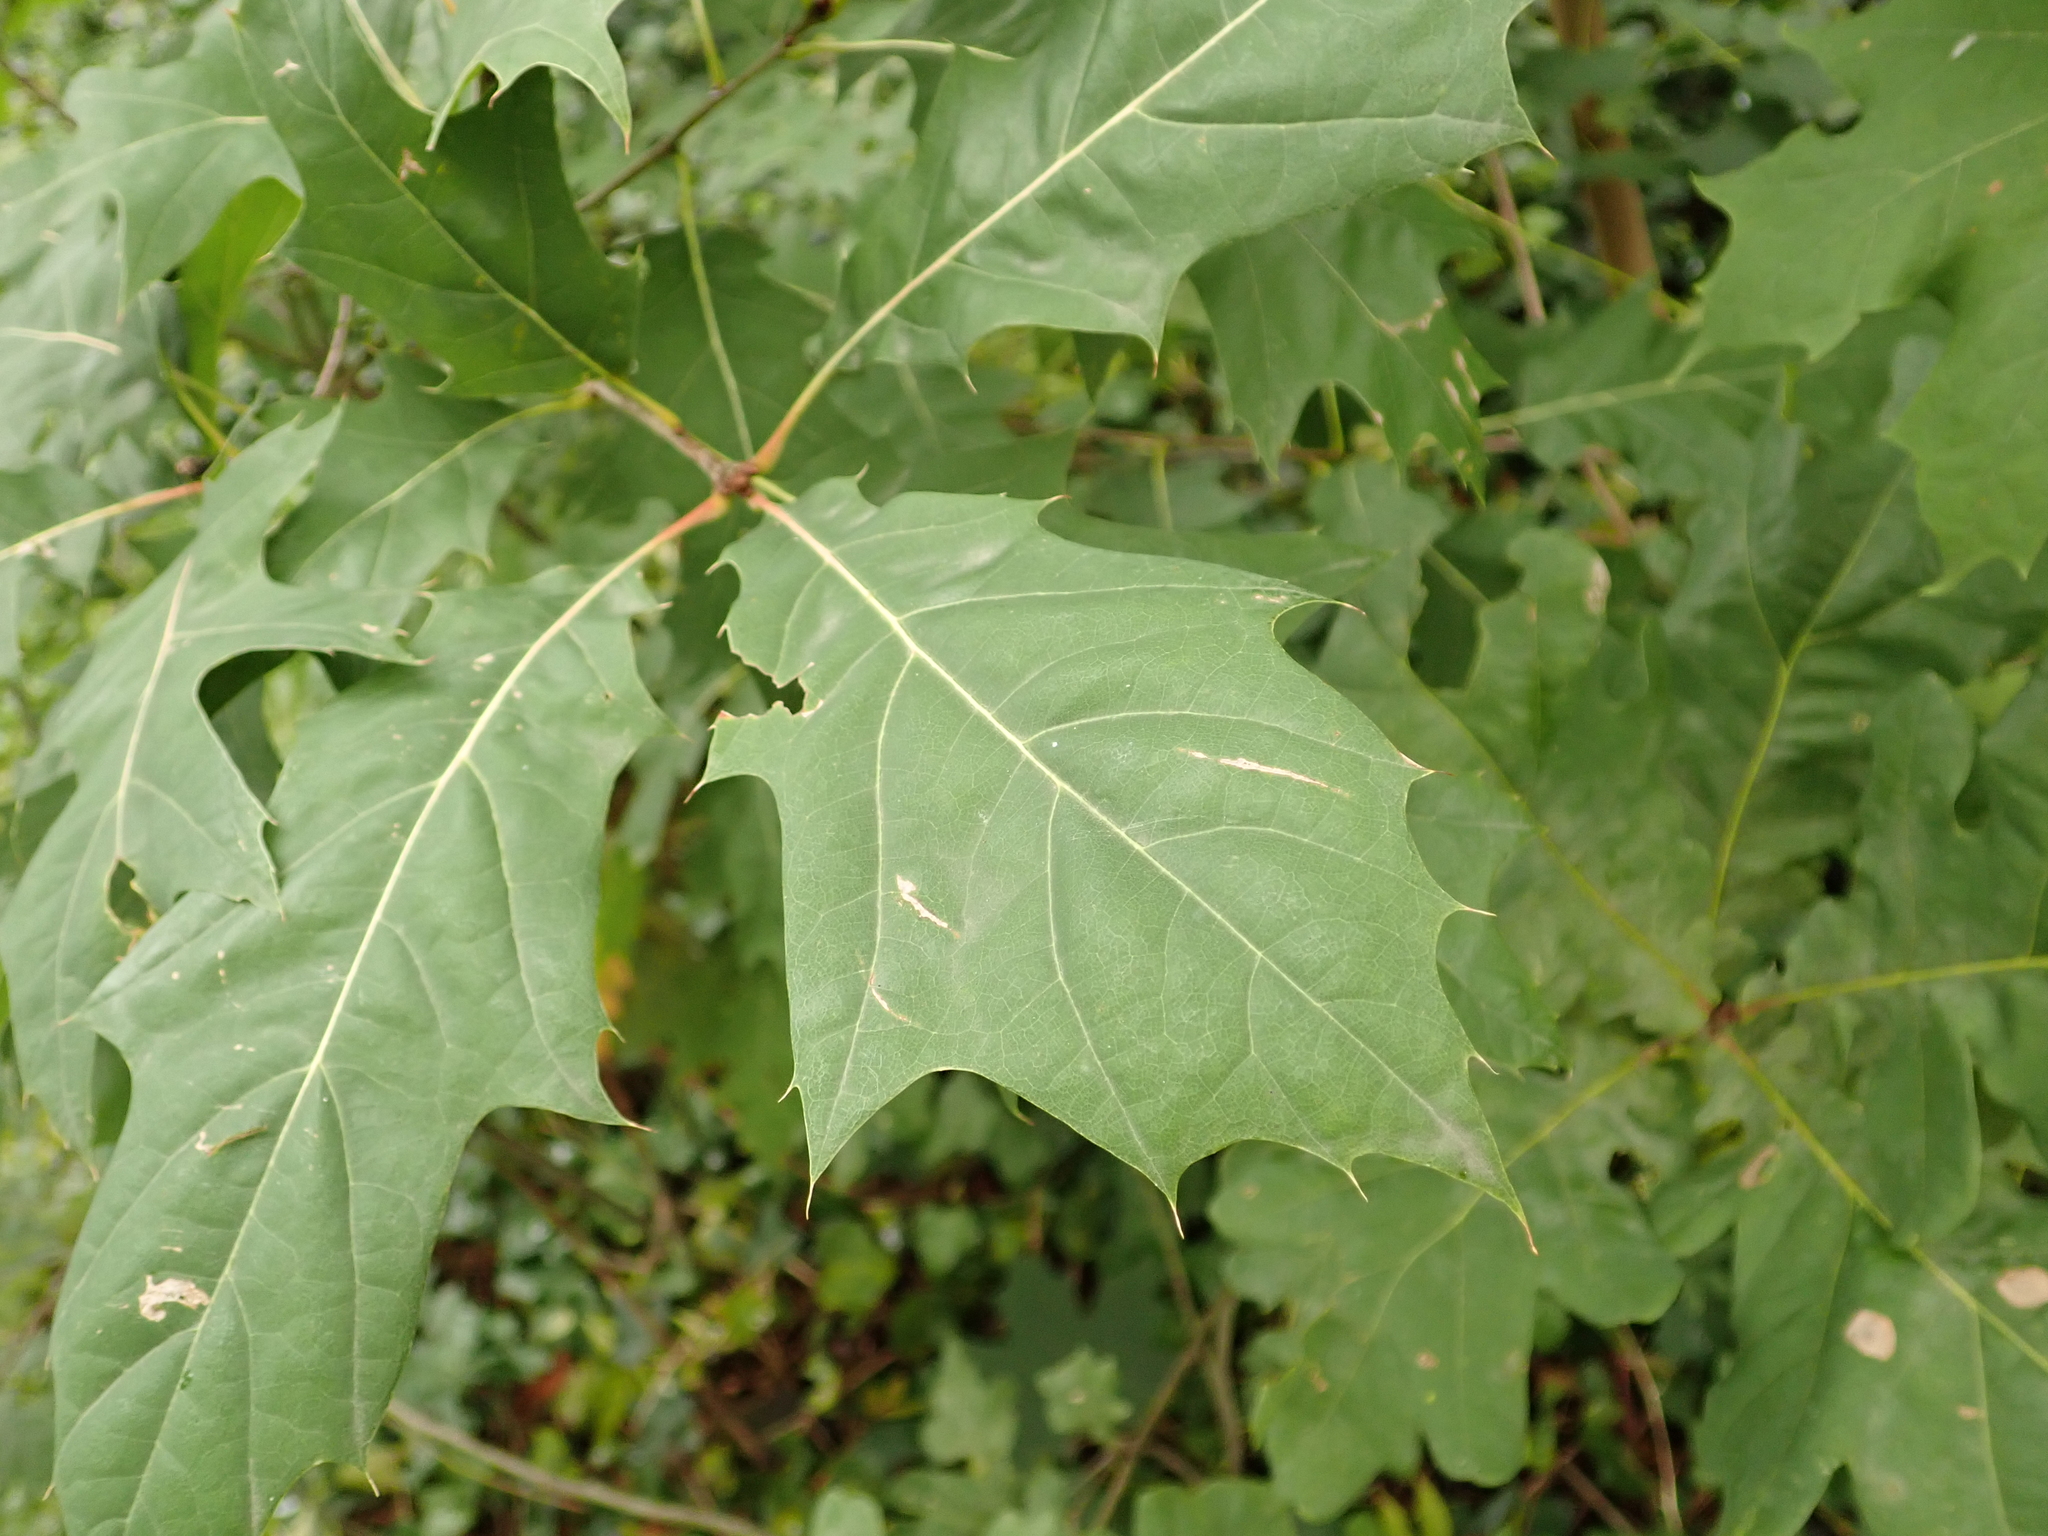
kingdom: Plantae
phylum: Tracheophyta
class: Magnoliopsida
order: Fagales
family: Fagaceae
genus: Quercus
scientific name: Quercus rubra
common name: Red oak
